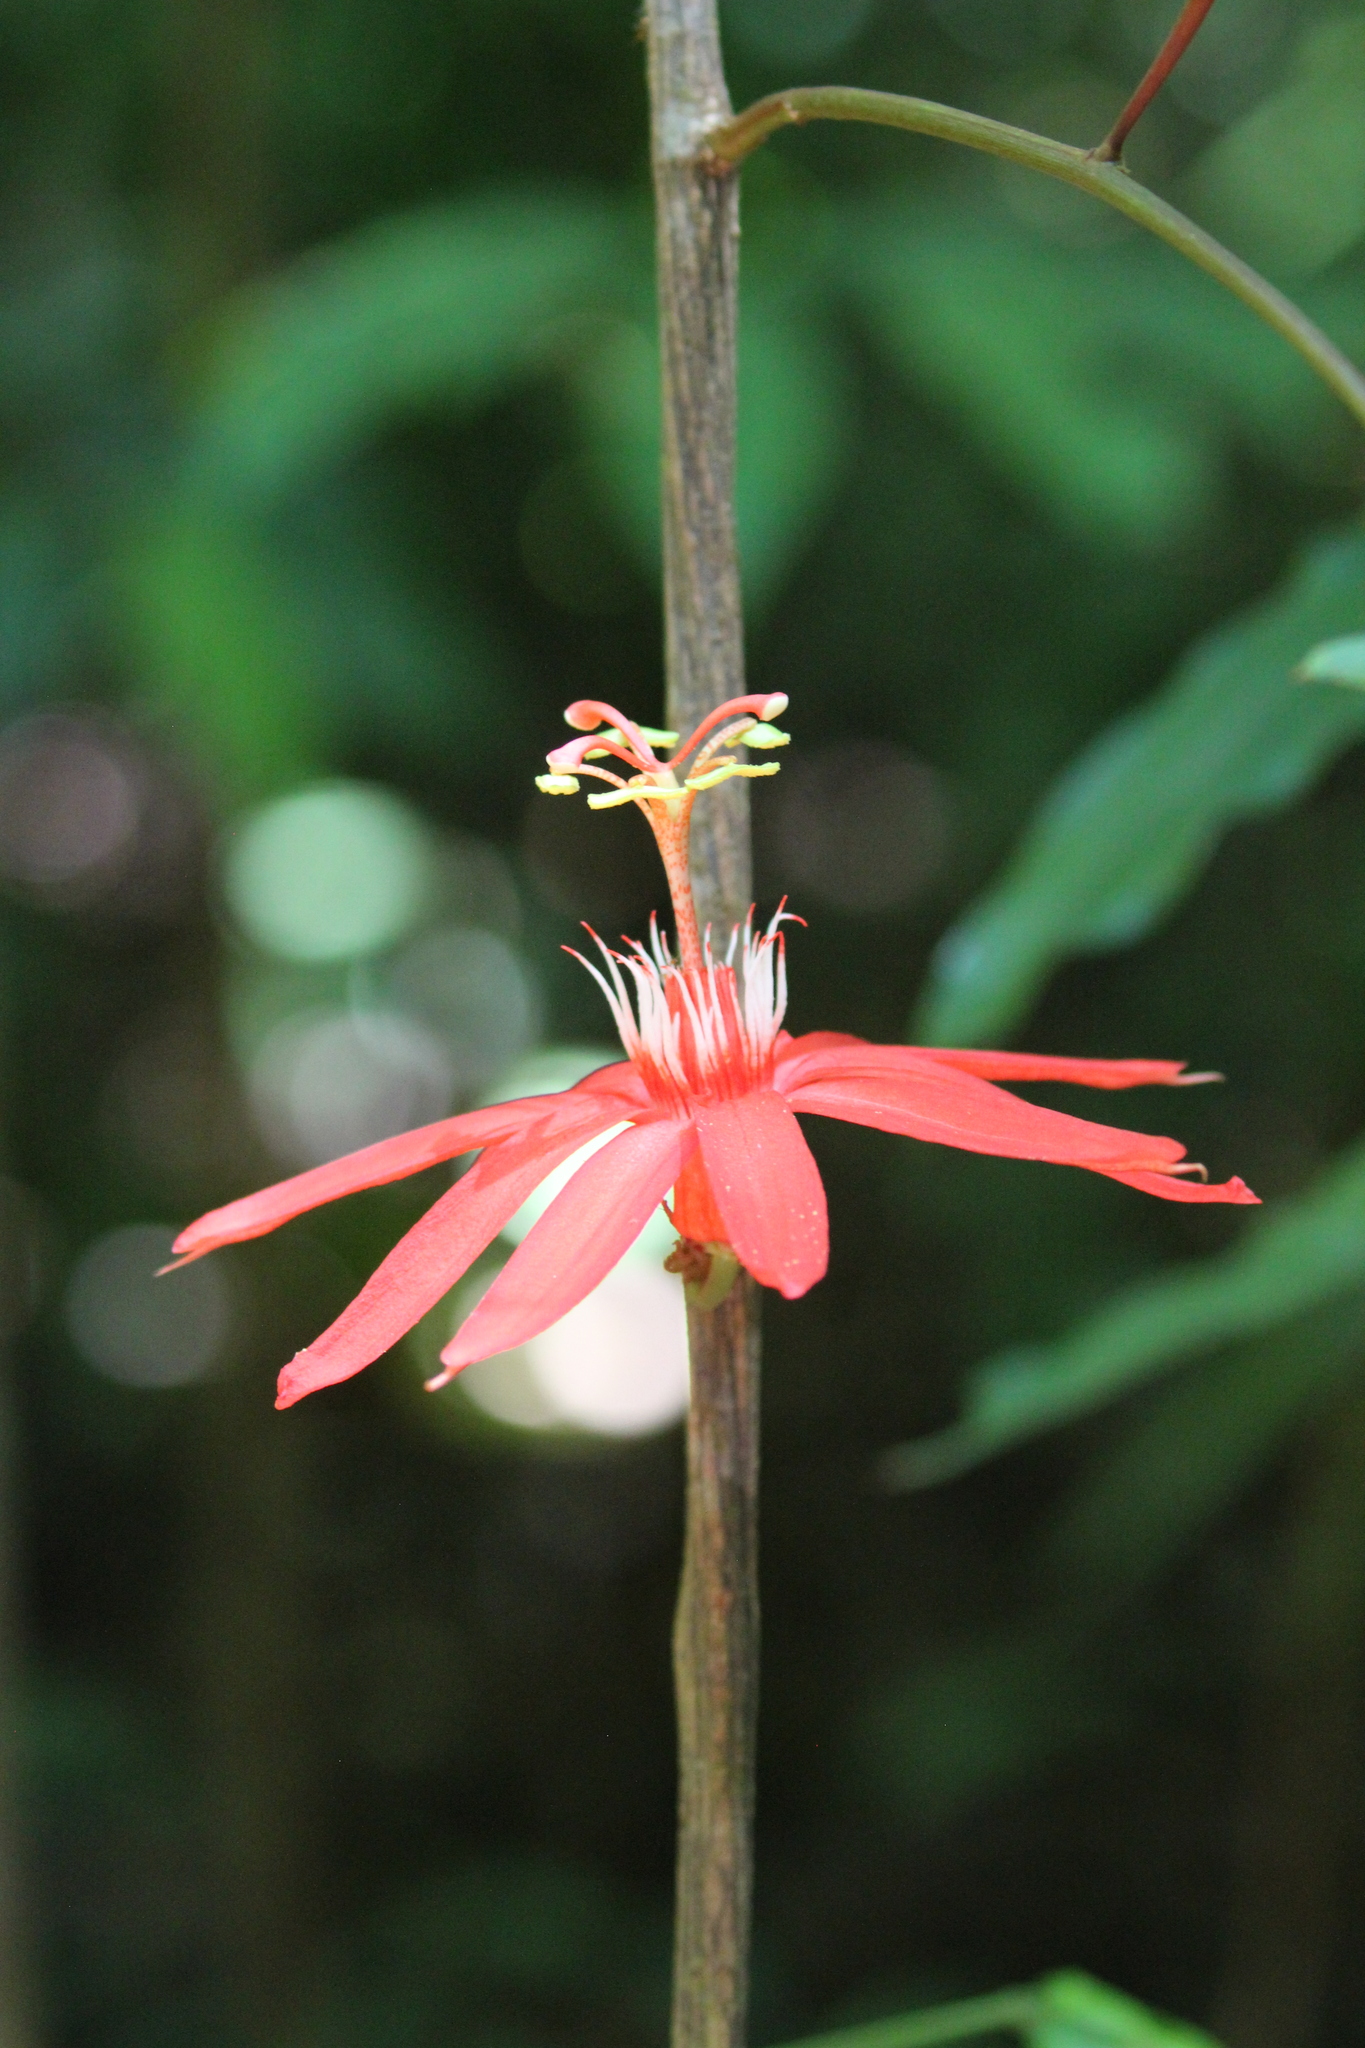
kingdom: Plantae
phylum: Tracheophyta
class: Magnoliopsida
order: Malpighiales
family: Passifloraceae
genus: Passiflora
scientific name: Passiflora vitifolia
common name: Perfumed passionflower
